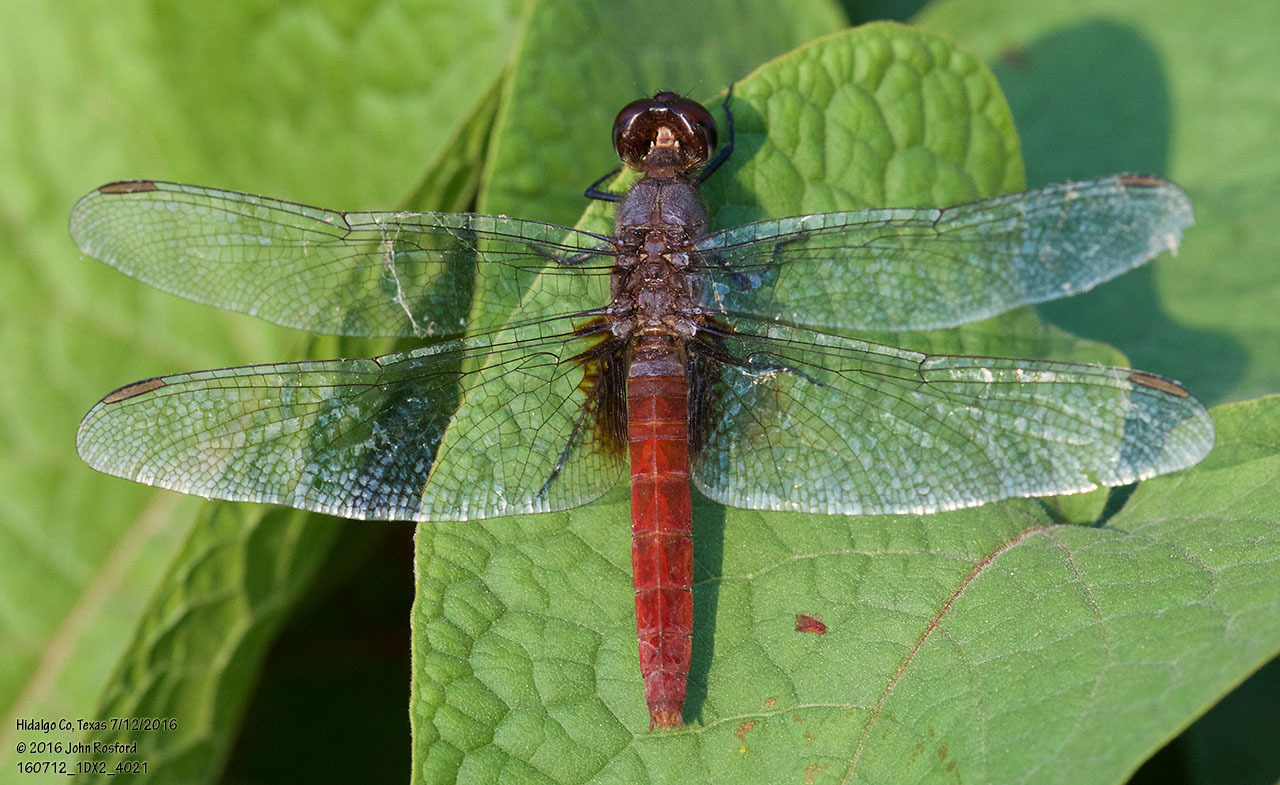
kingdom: Animalia
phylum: Arthropoda
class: Insecta
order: Odonata
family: Libellulidae
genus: Planiplax
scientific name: Planiplax sanguiniventris
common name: Mexican scarlet-tail
